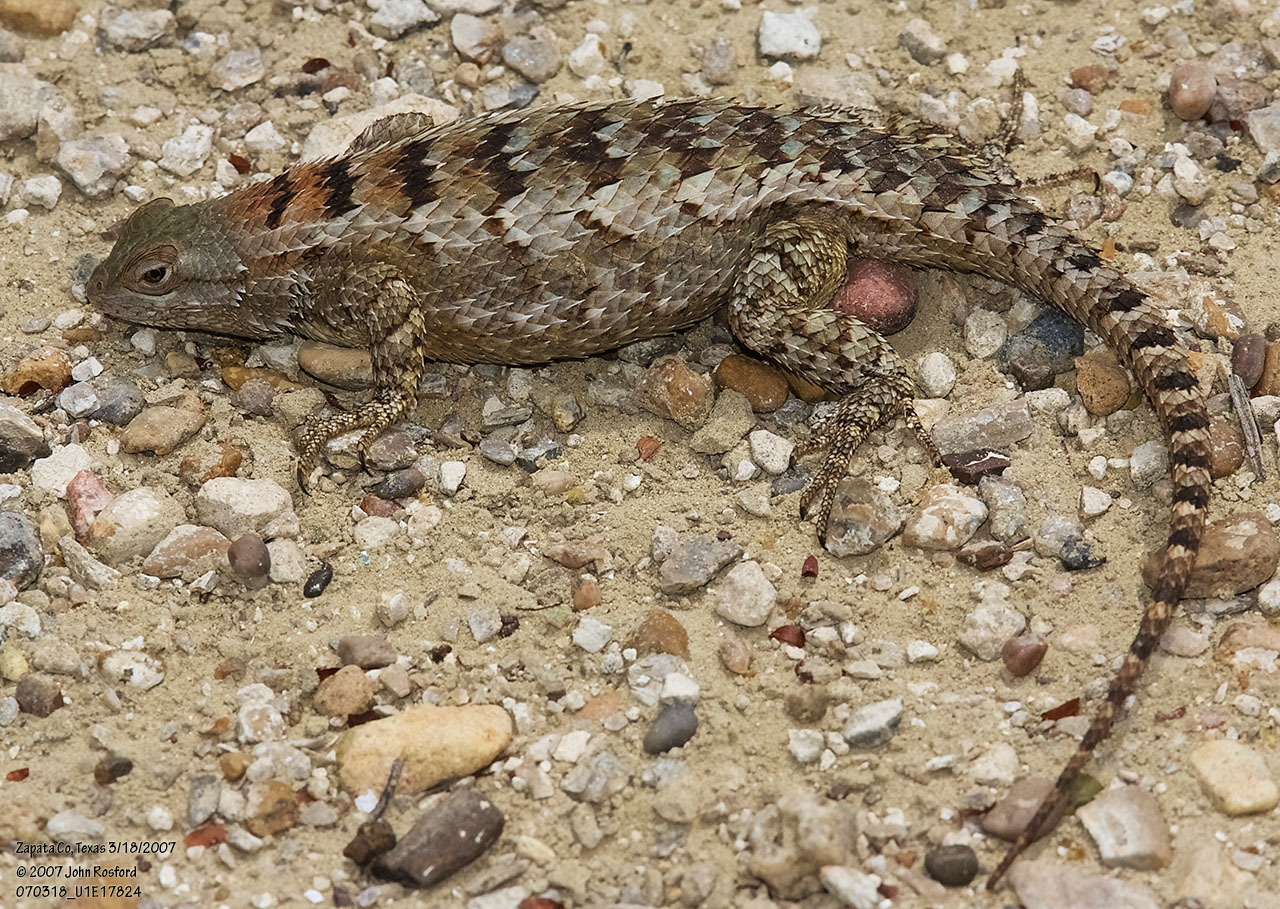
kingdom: Animalia
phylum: Chordata
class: Squamata
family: Phrynosomatidae
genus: Sceloporus
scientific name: Sceloporus olivaceus
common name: Texas spiny lizard
